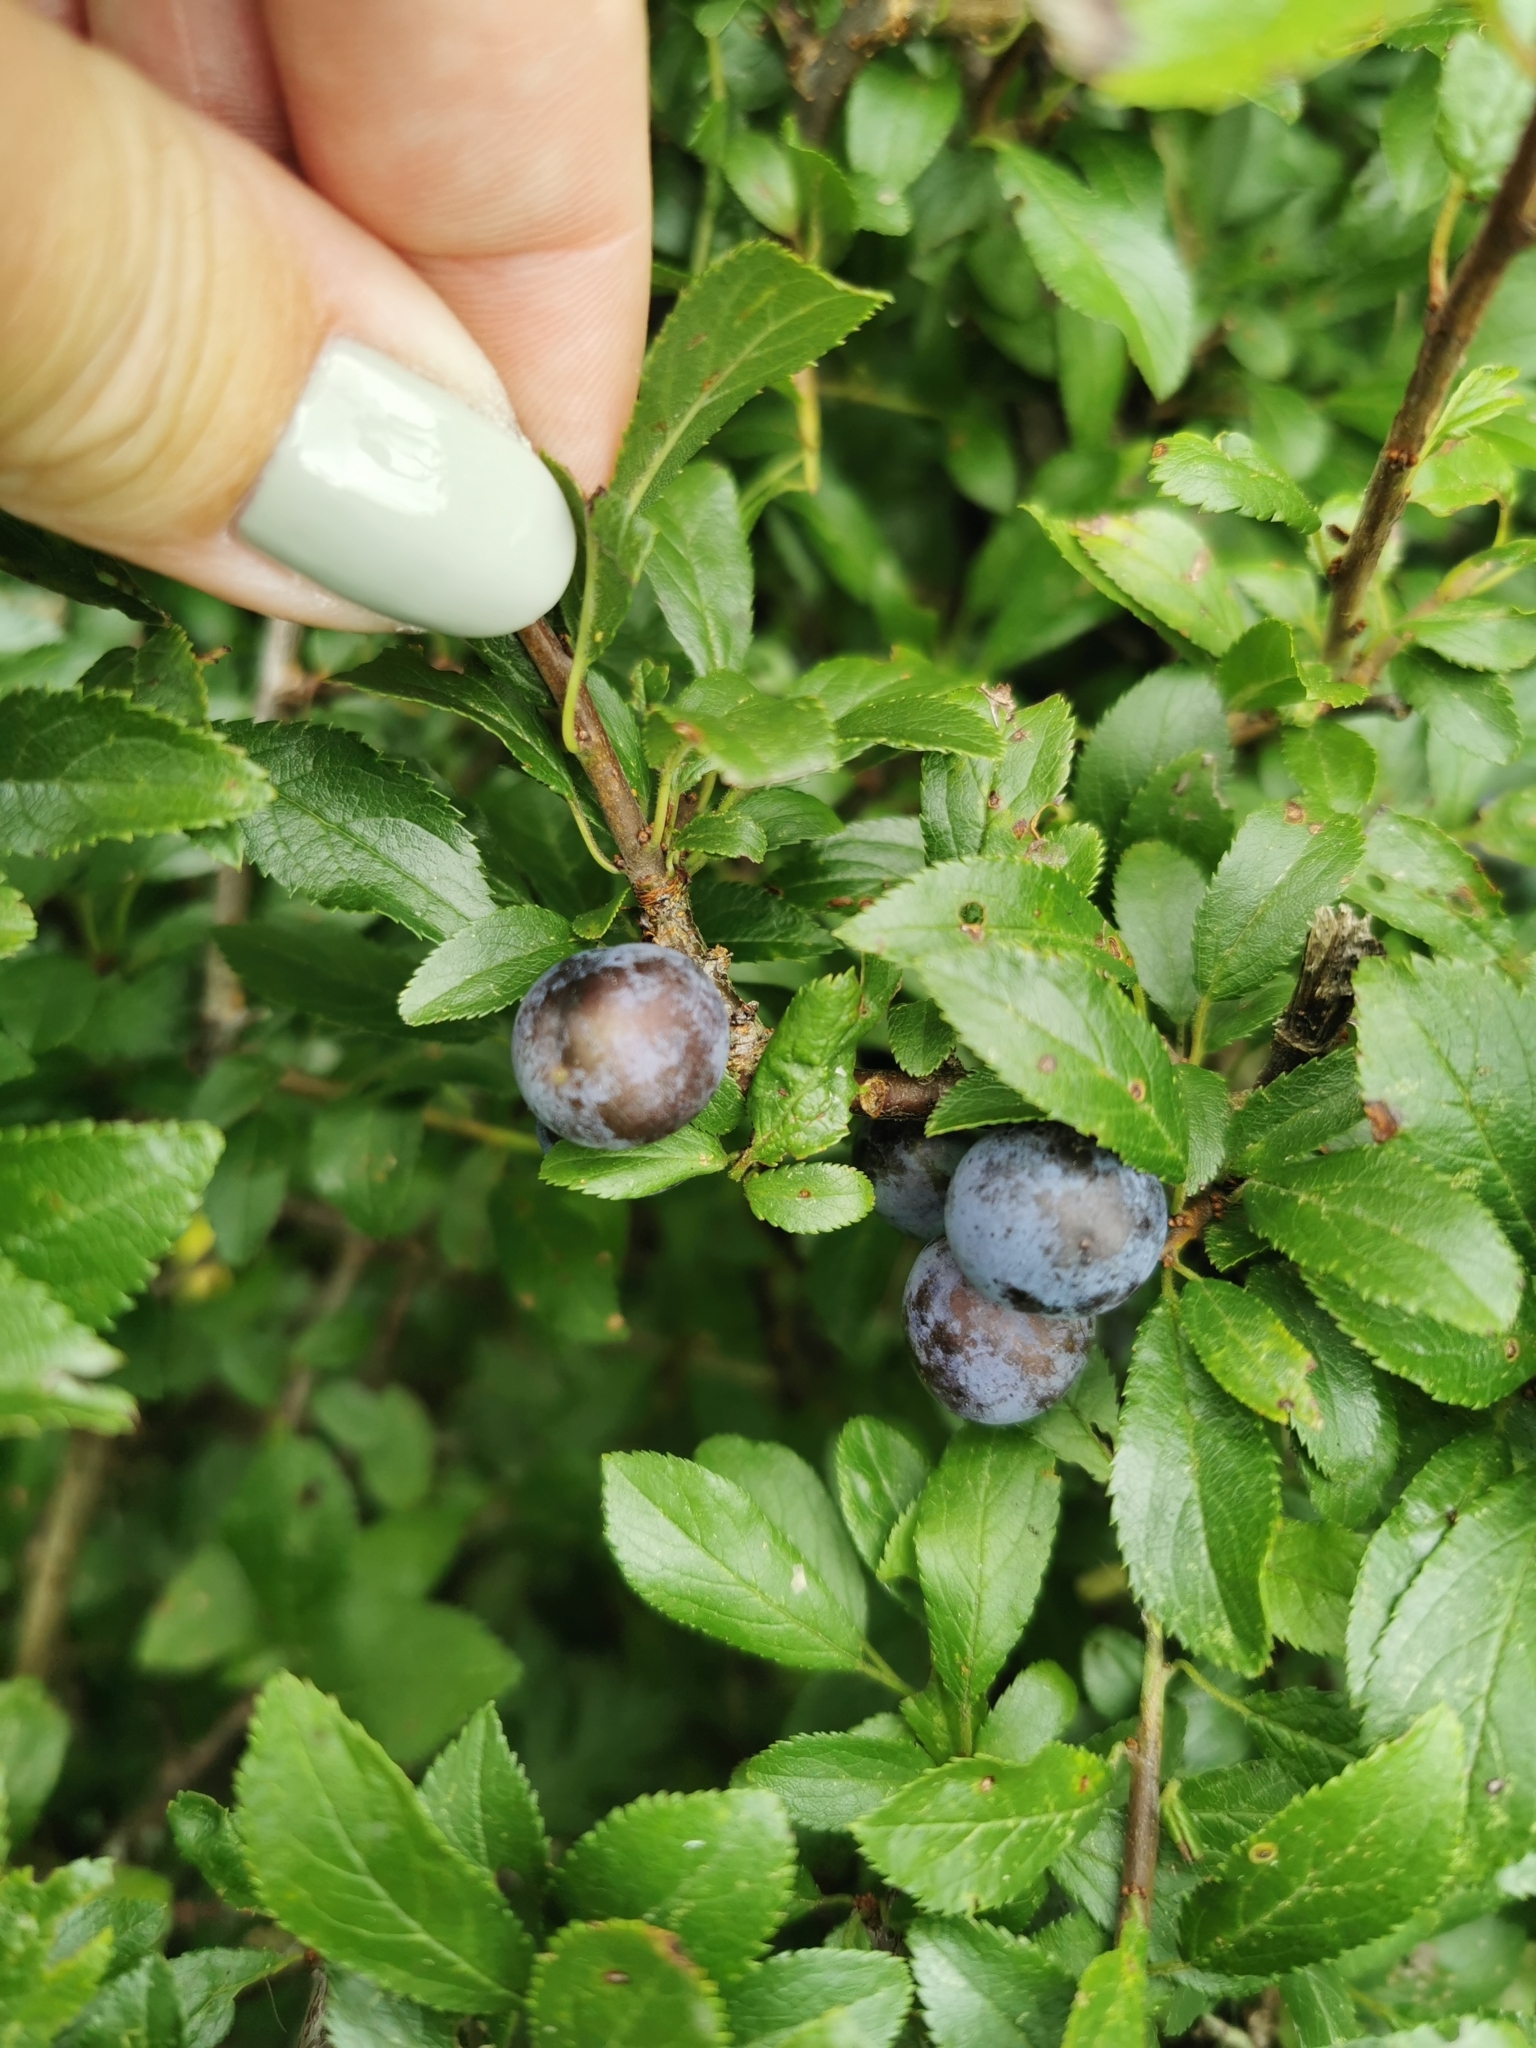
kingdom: Plantae
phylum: Tracheophyta
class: Magnoliopsida
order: Rosales
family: Rosaceae
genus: Prunus
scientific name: Prunus spinosa
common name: Blackthorn
